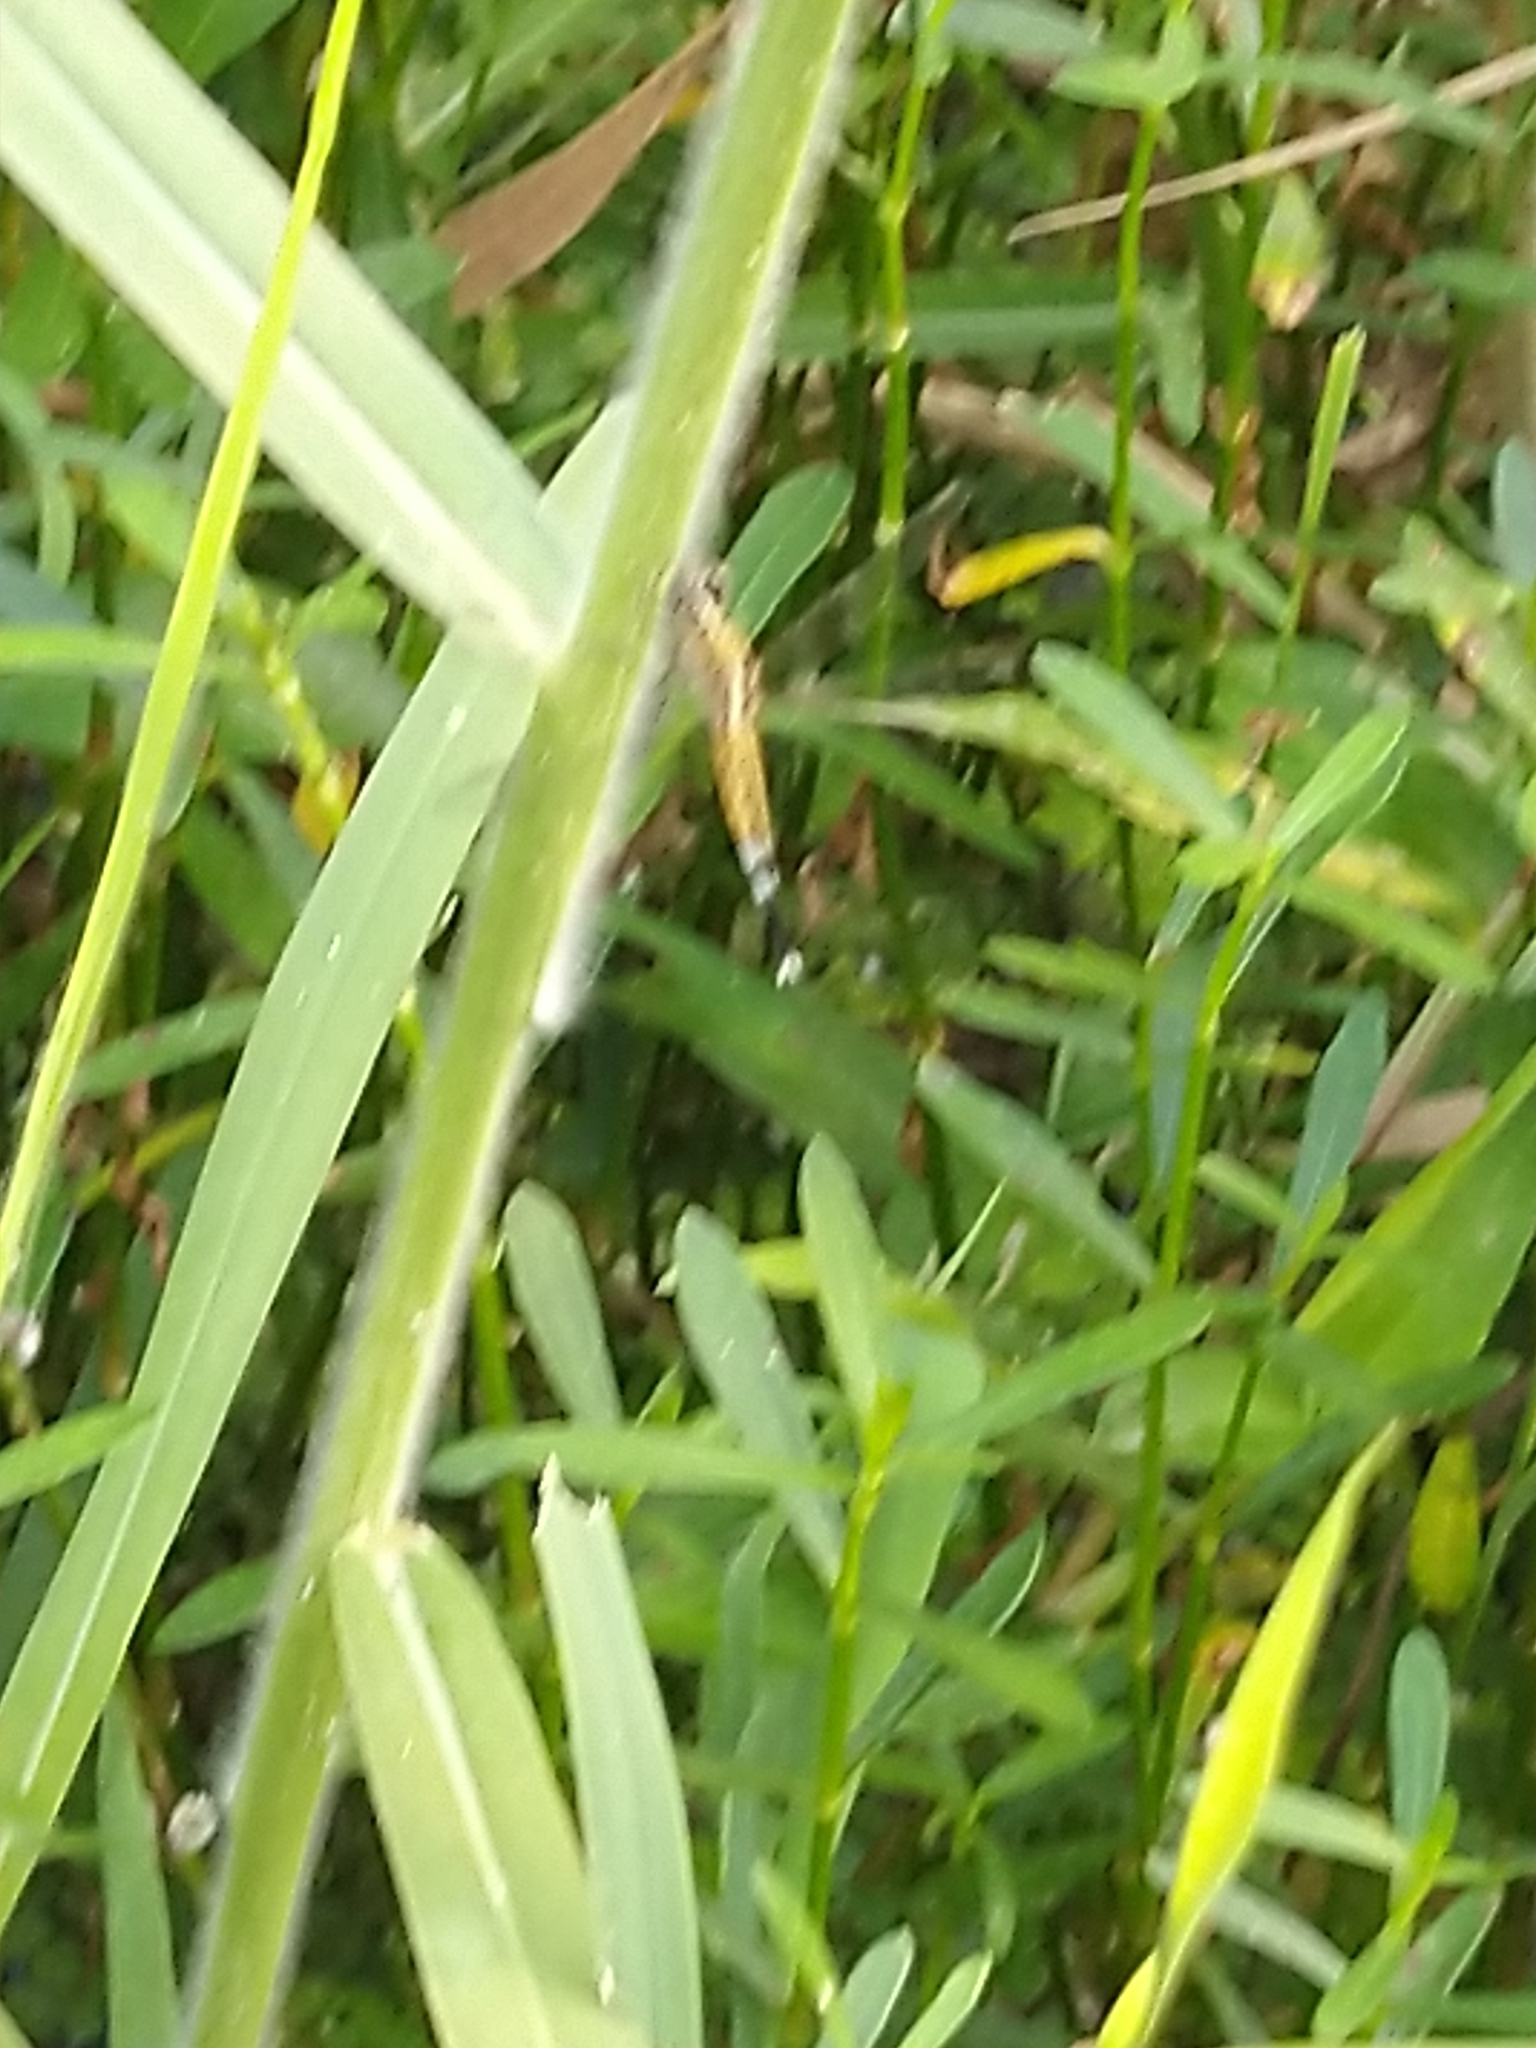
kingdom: Animalia
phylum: Arthropoda
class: Insecta
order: Odonata
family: Libellulidae
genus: Acisoma
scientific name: Acisoma panorpoides
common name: Asian pintail
